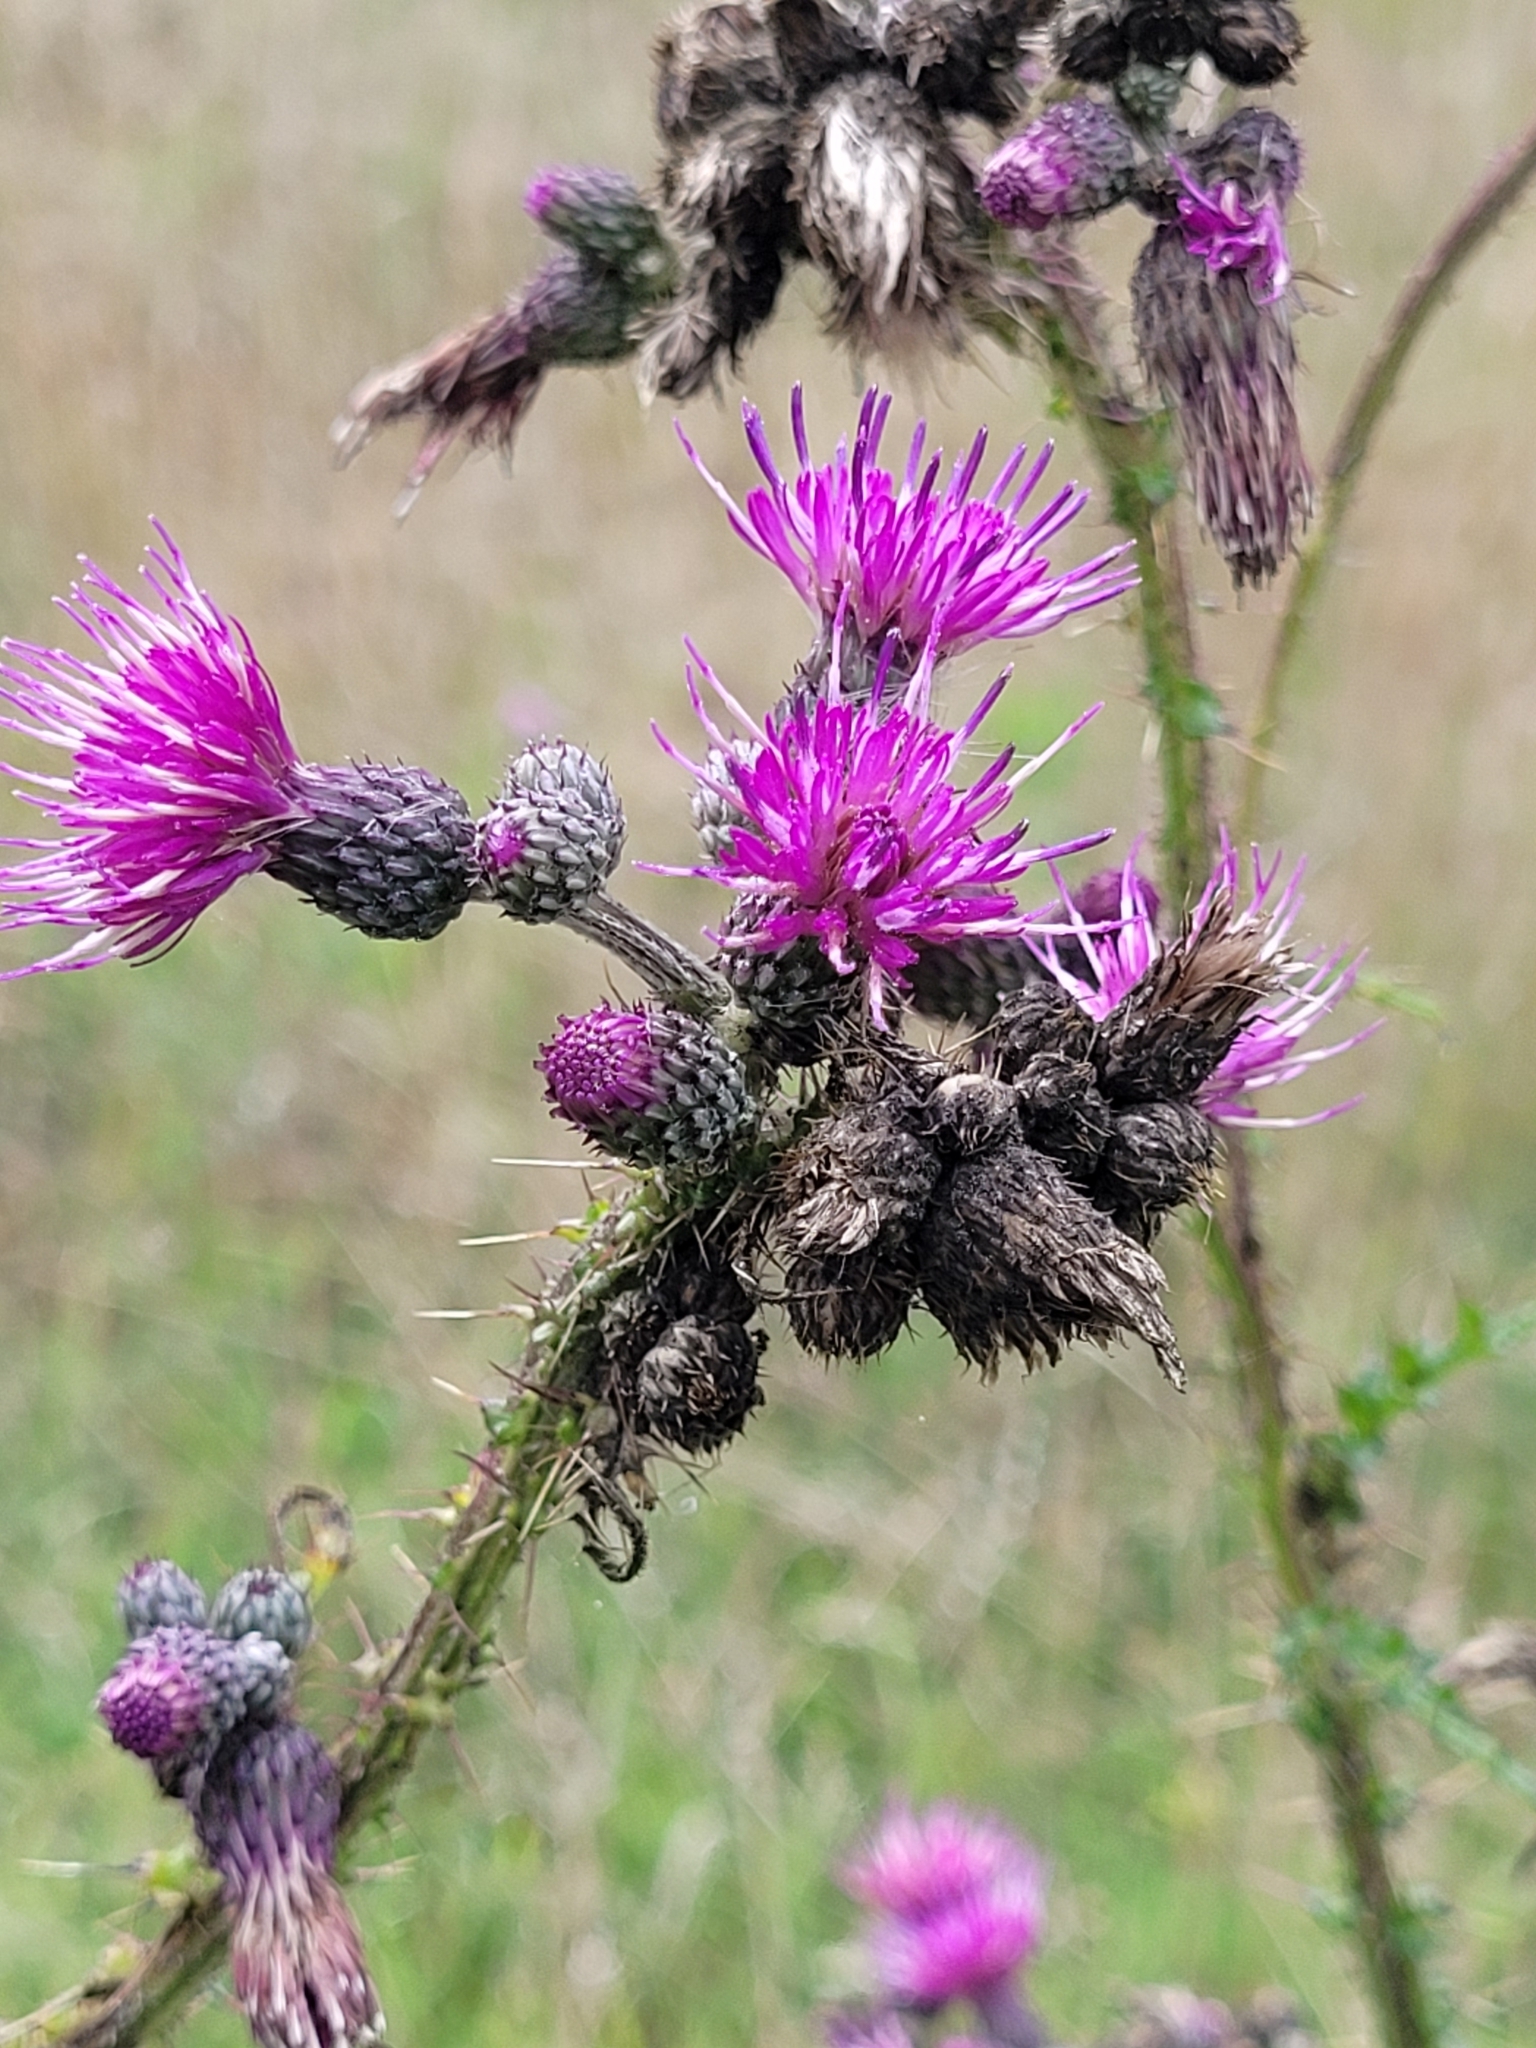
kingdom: Plantae
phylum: Tracheophyta
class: Magnoliopsida
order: Asterales
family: Asteraceae
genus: Cirsium
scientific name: Cirsium palustre
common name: Marsh thistle
